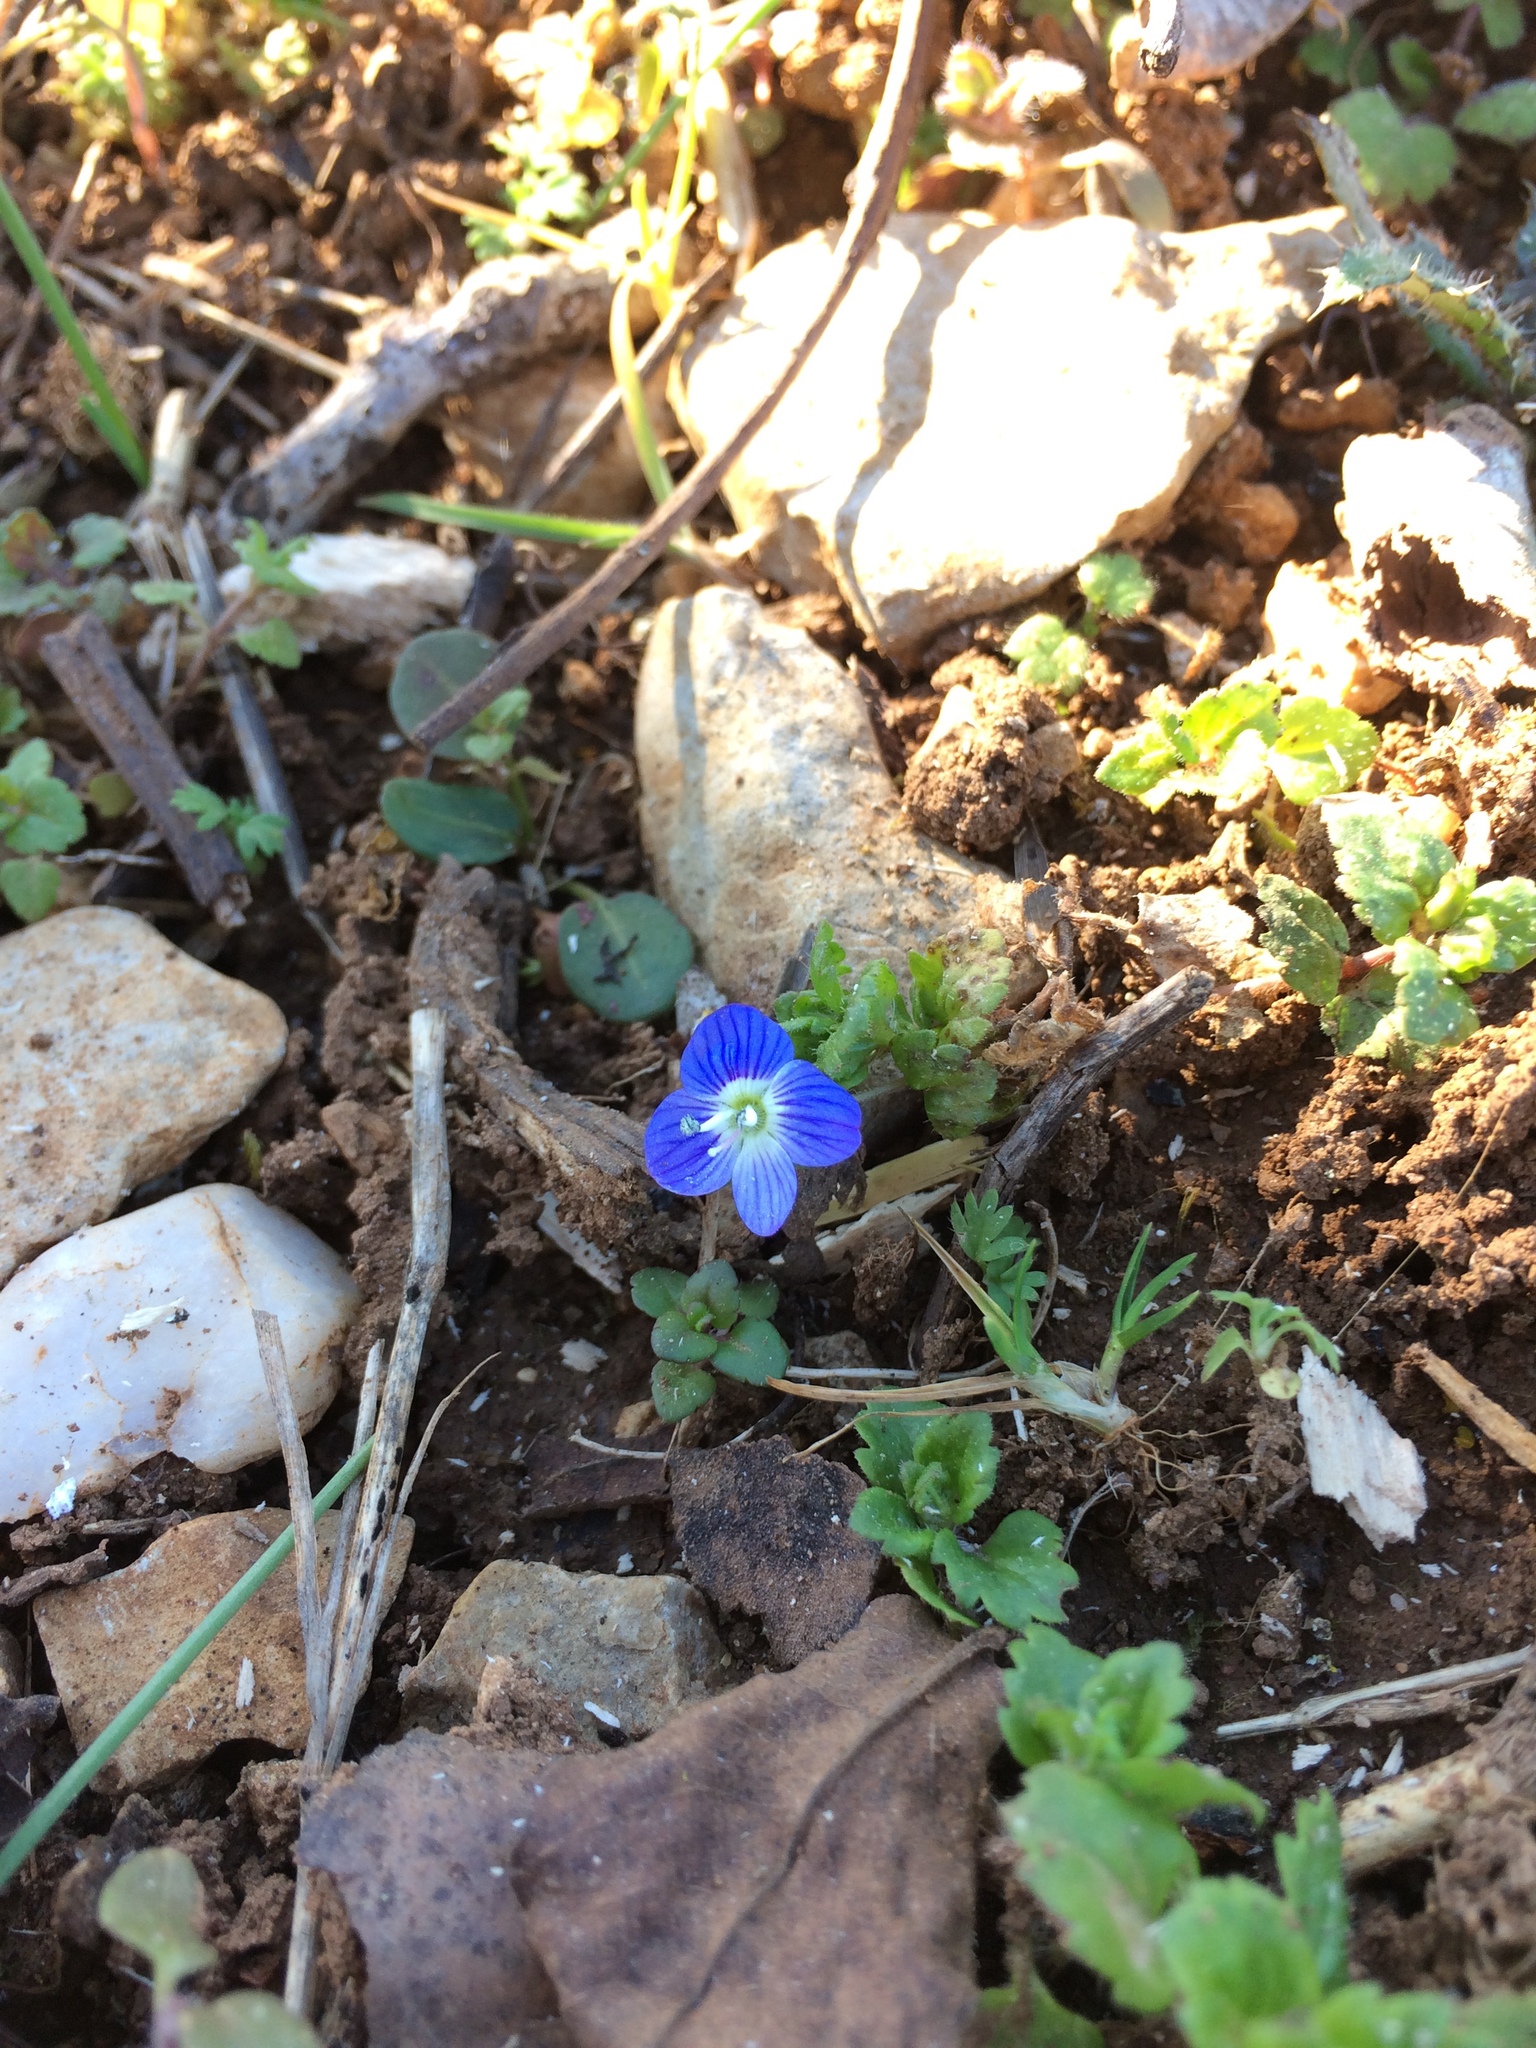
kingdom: Plantae
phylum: Tracheophyta
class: Magnoliopsida
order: Lamiales
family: Plantaginaceae
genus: Veronica
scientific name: Veronica persica
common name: Common field-speedwell
